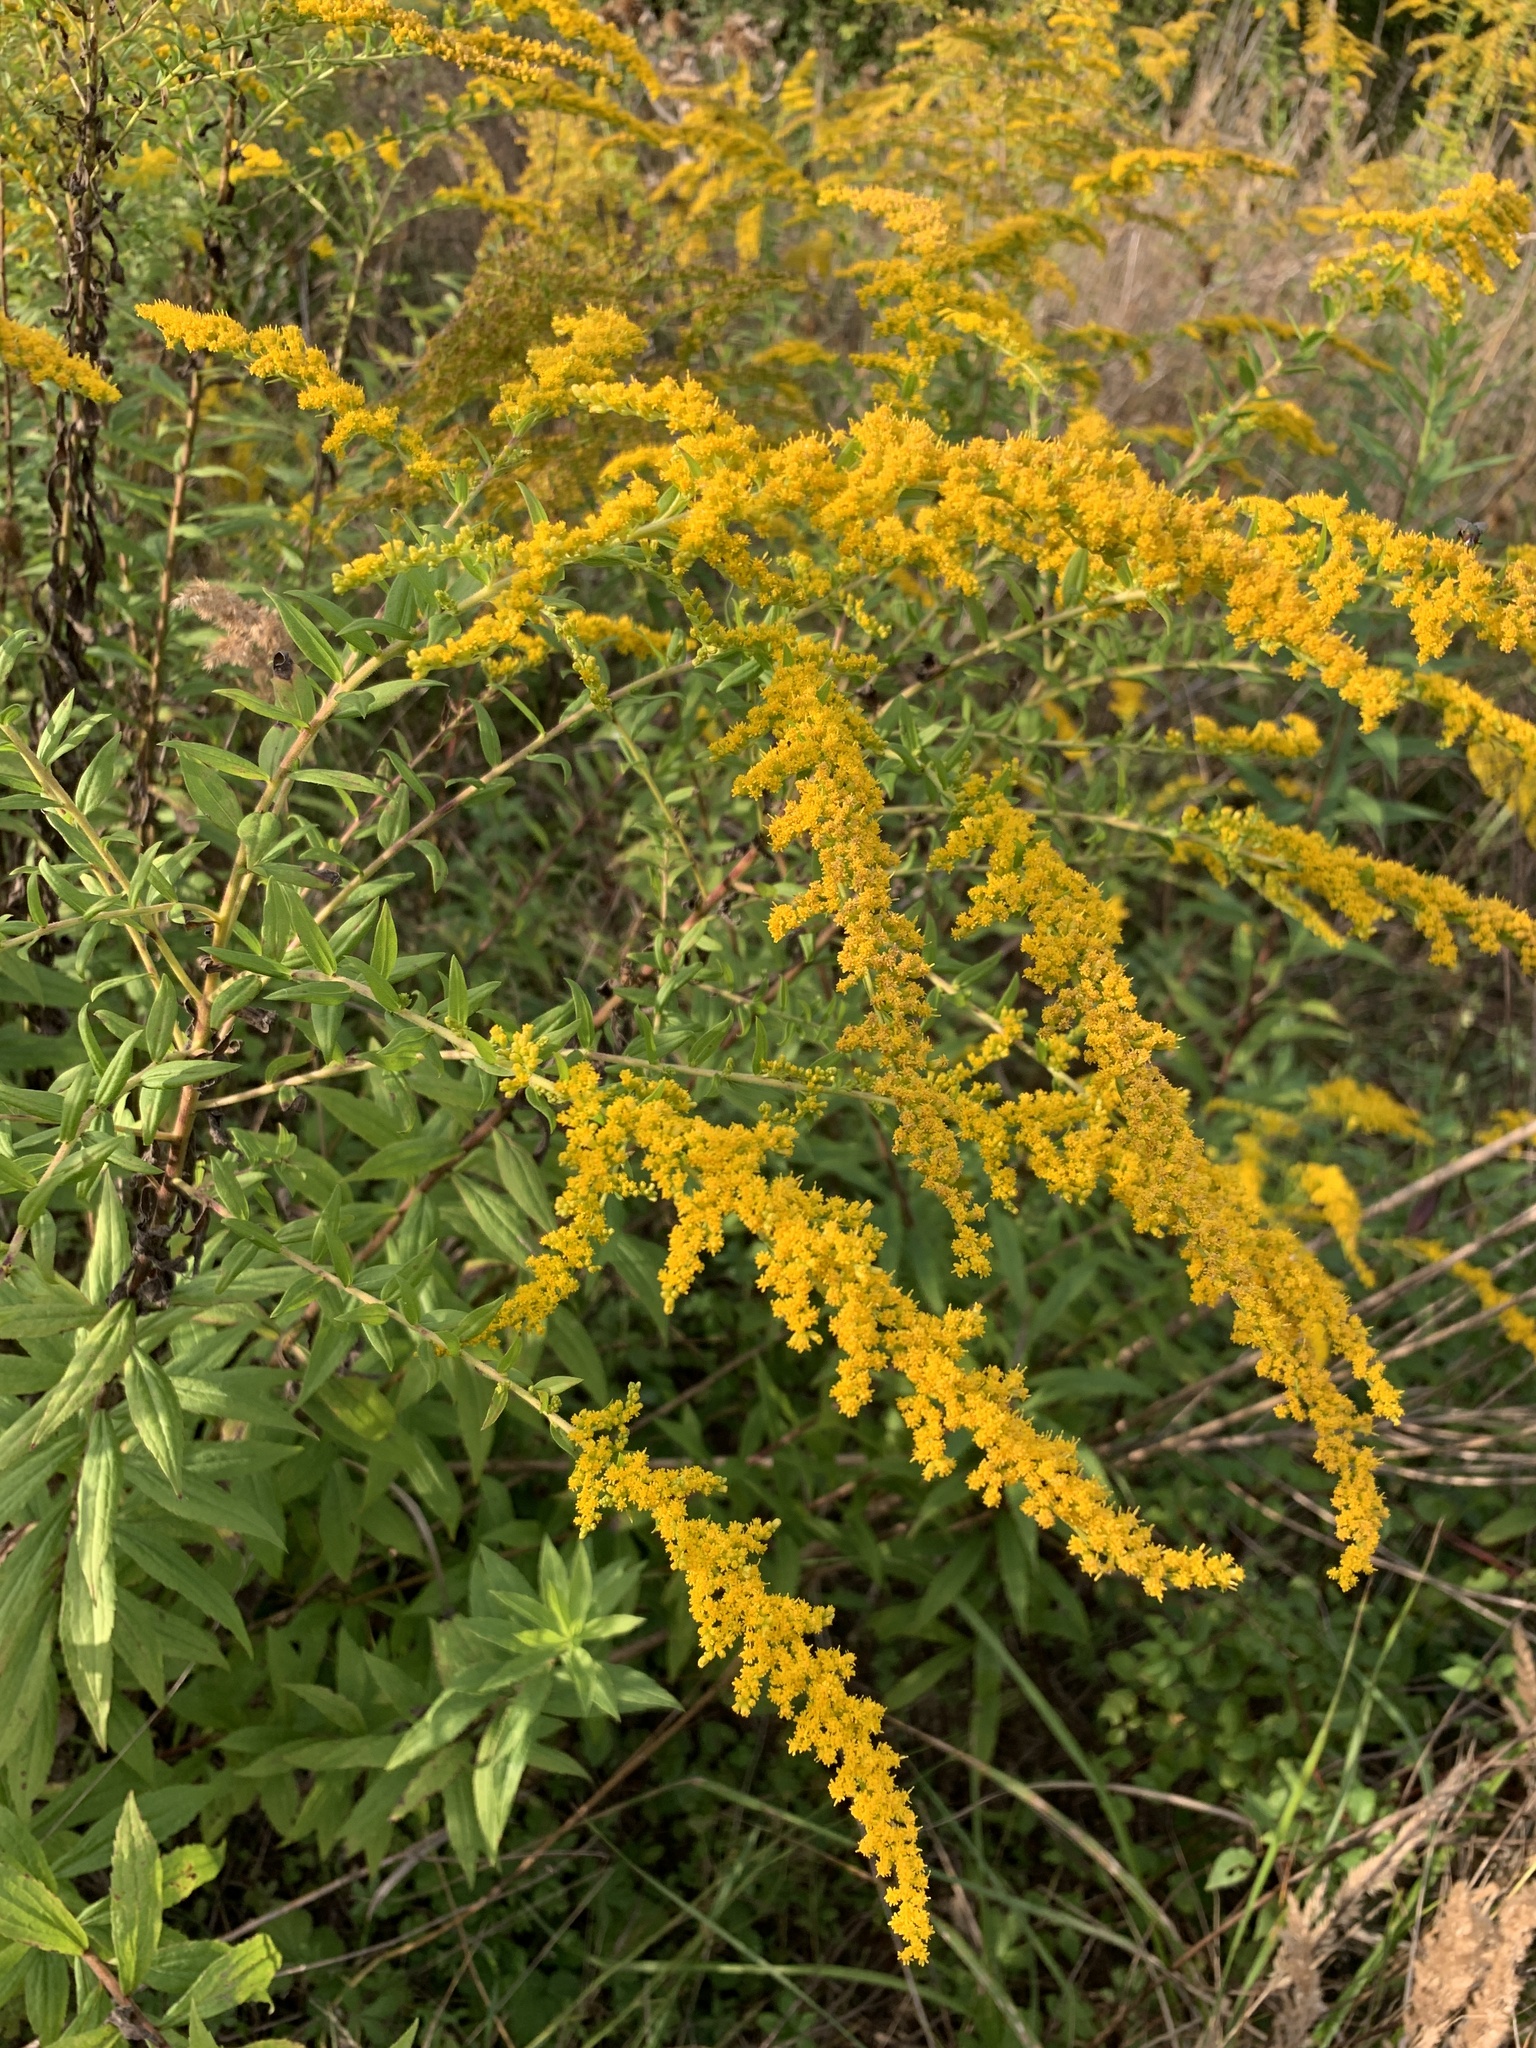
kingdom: Plantae
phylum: Tracheophyta
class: Magnoliopsida
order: Asterales
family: Asteraceae
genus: Solidago
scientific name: Solidago canadensis
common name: Canada goldenrod
